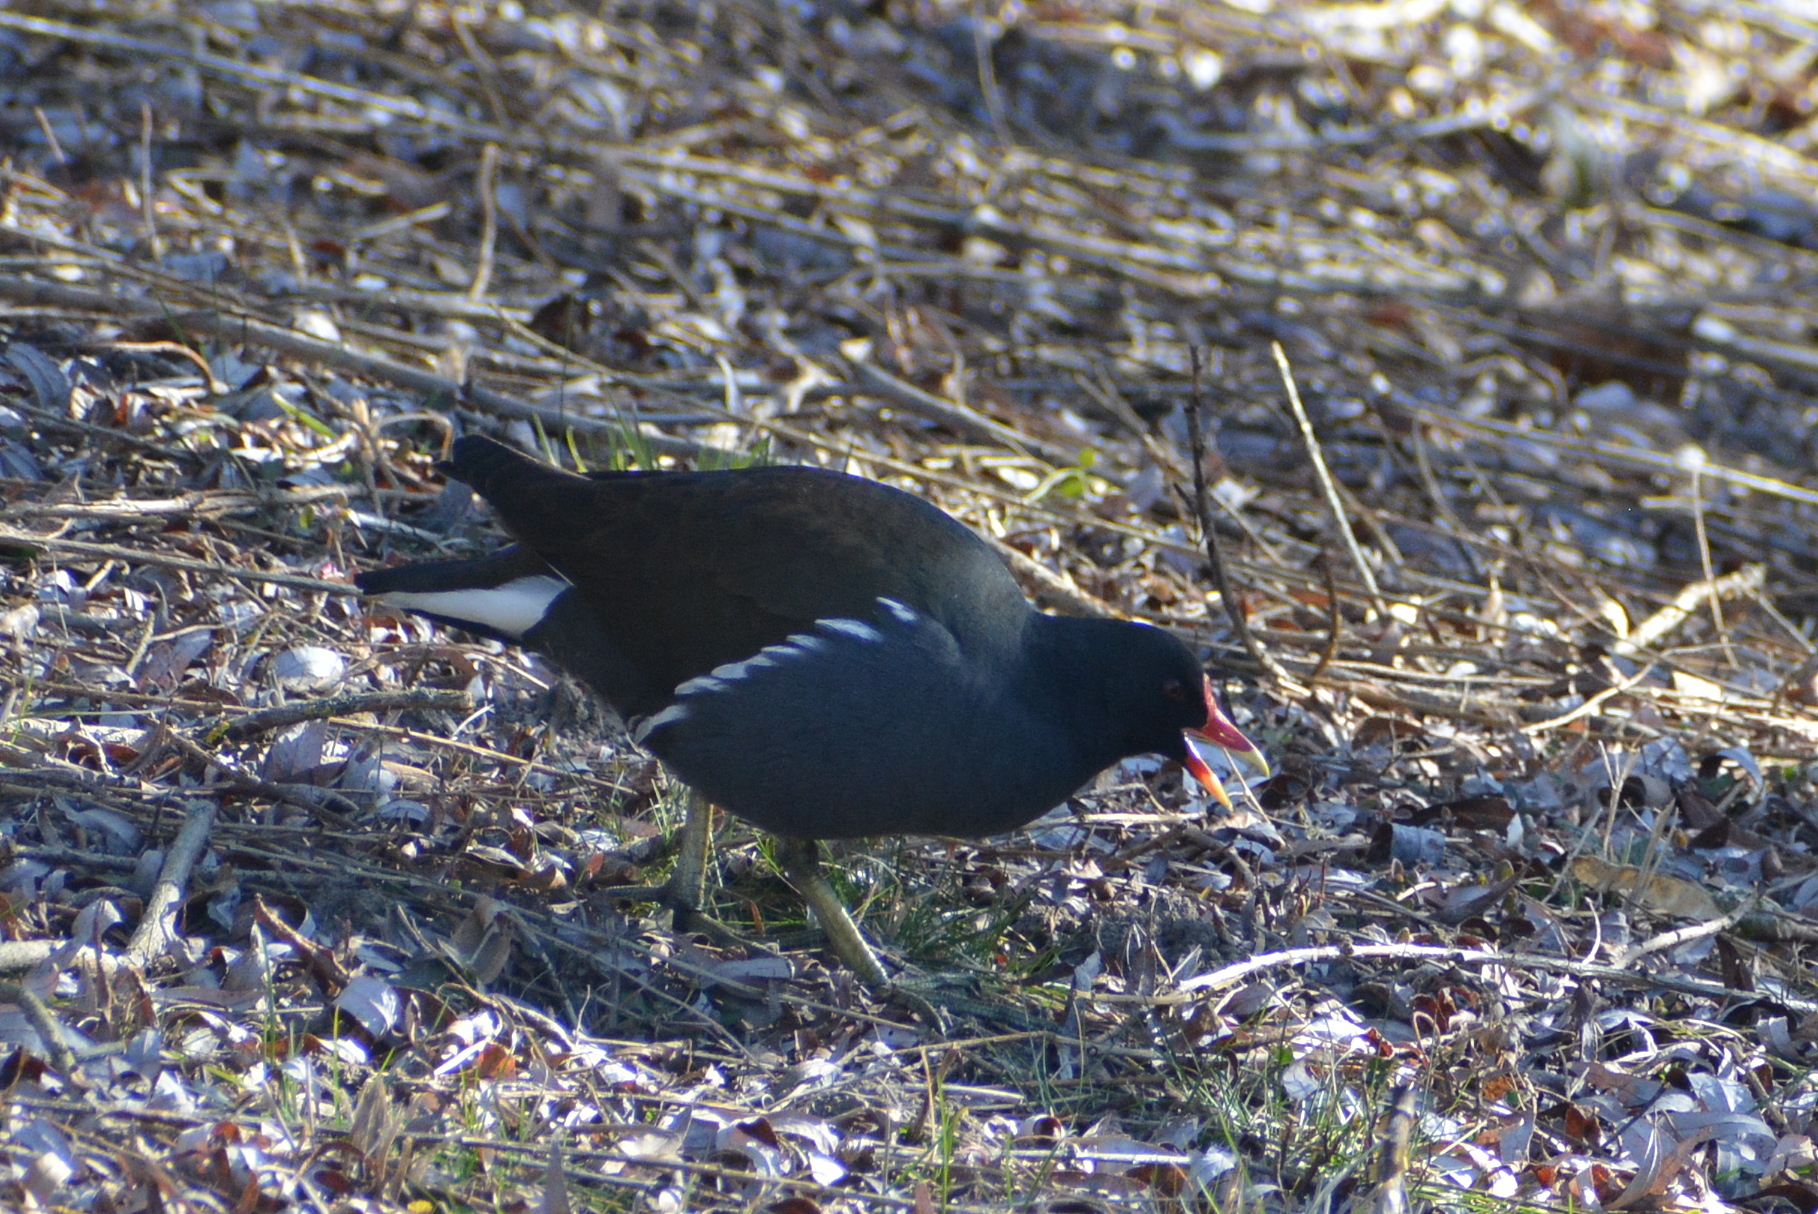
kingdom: Animalia
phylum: Chordata
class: Aves
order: Gruiformes
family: Rallidae
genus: Gallinula
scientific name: Gallinula chloropus
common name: Common moorhen
